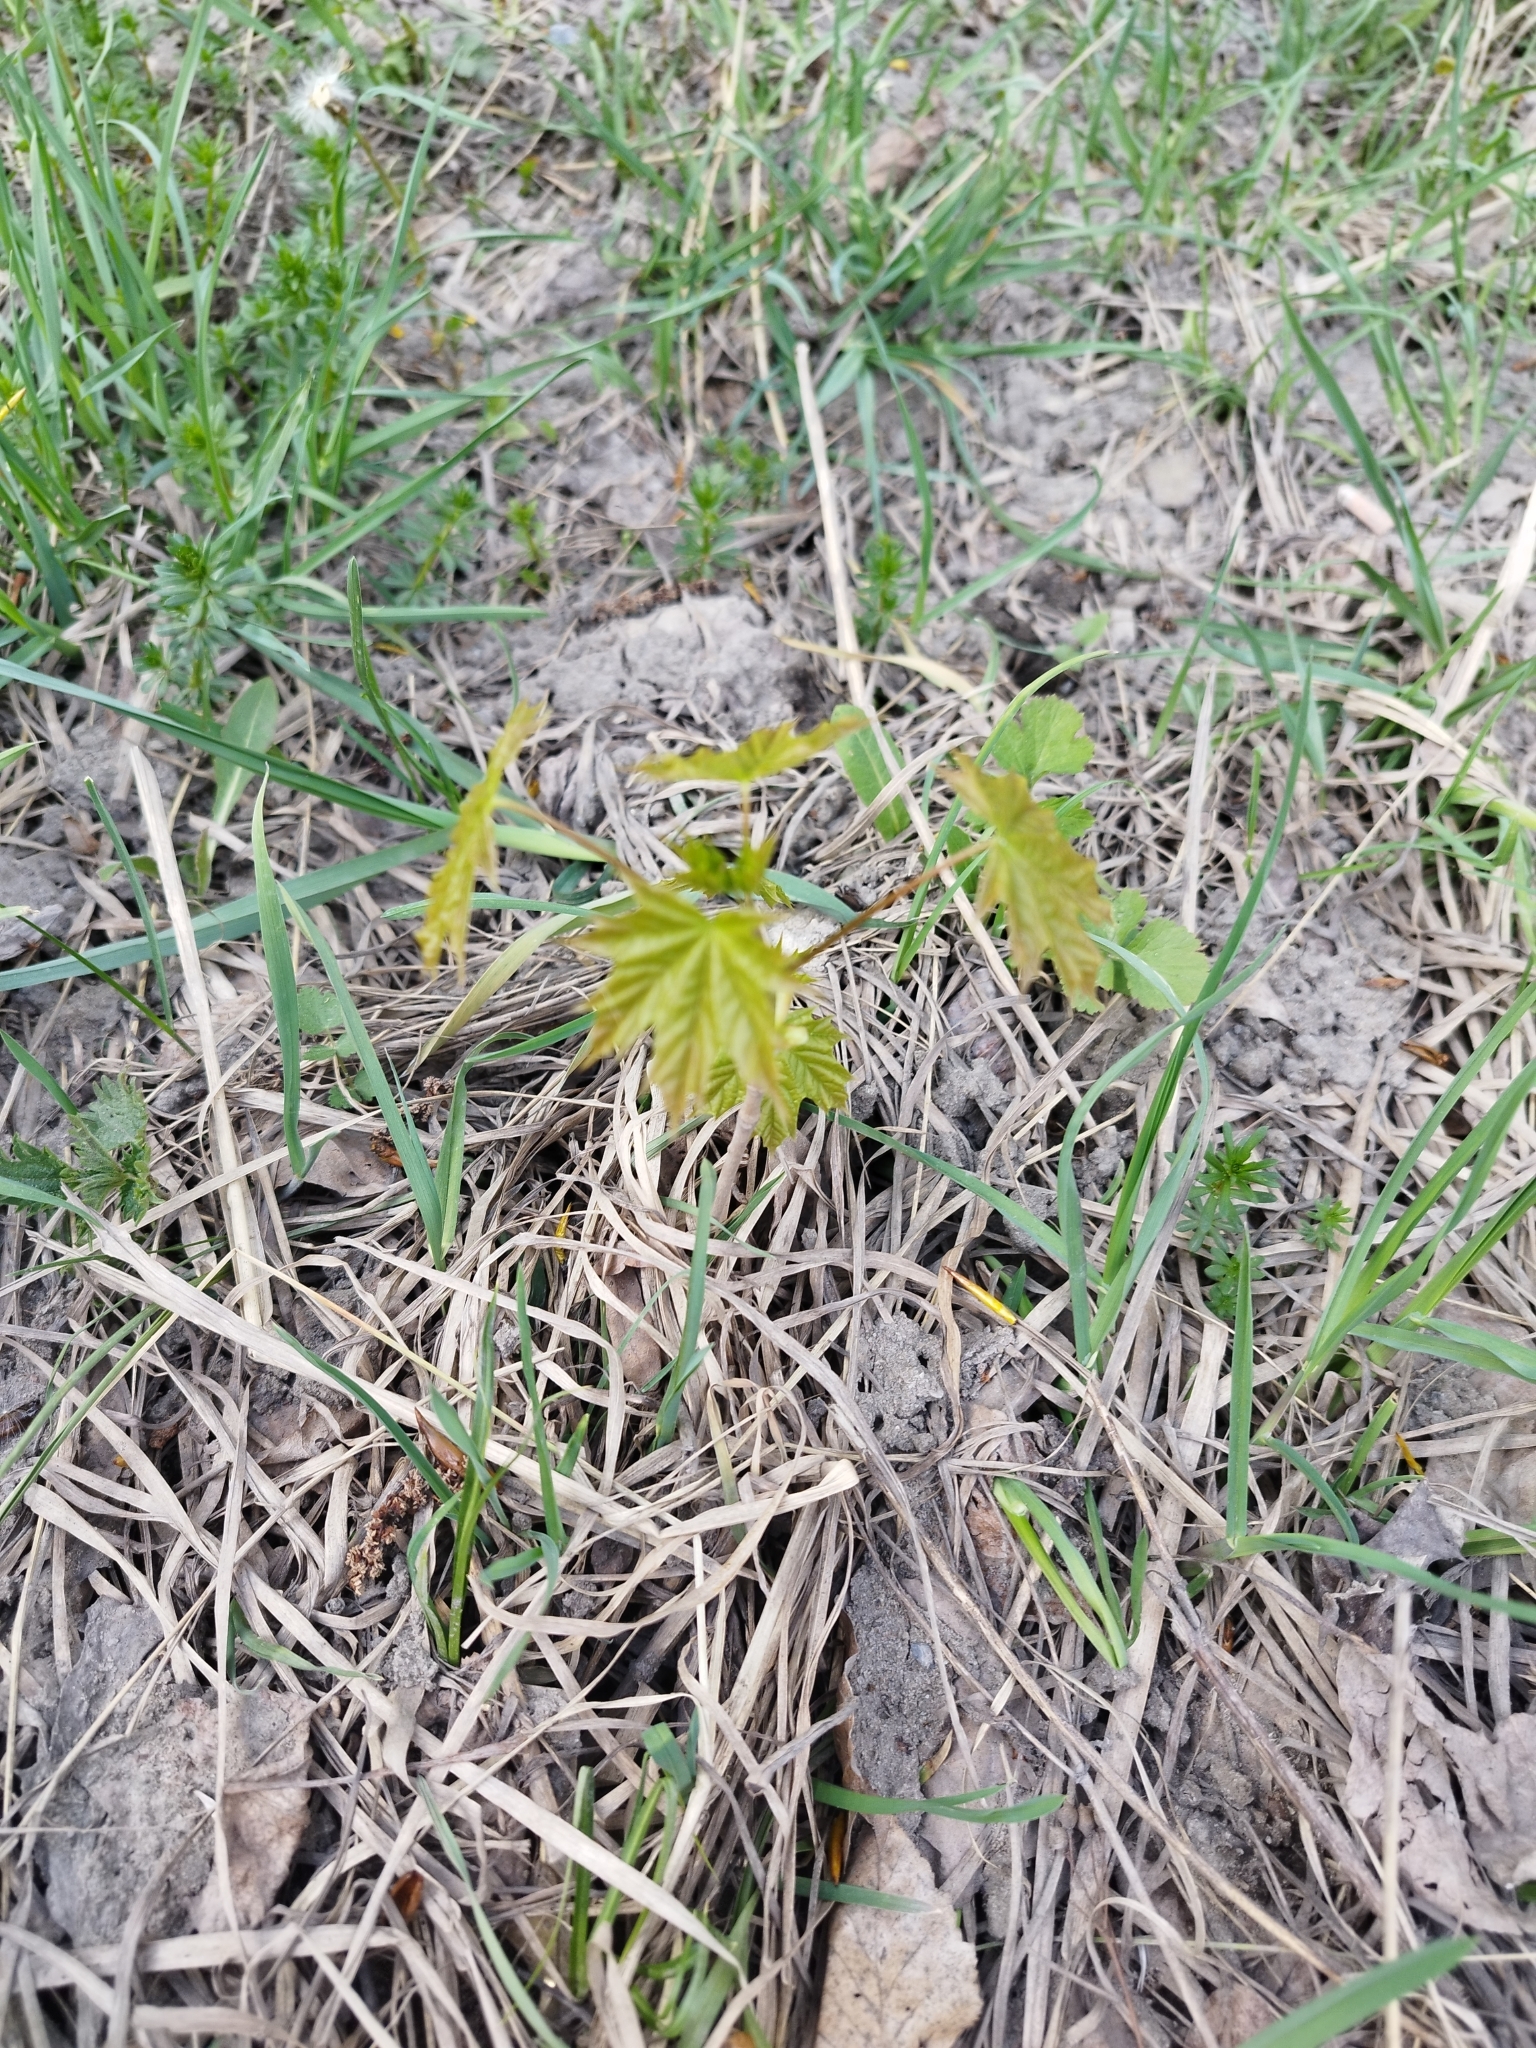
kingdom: Plantae
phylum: Tracheophyta
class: Magnoliopsida
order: Sapindales
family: Sapindaceae
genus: Acer
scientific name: Acer platanoides
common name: Norway maple
